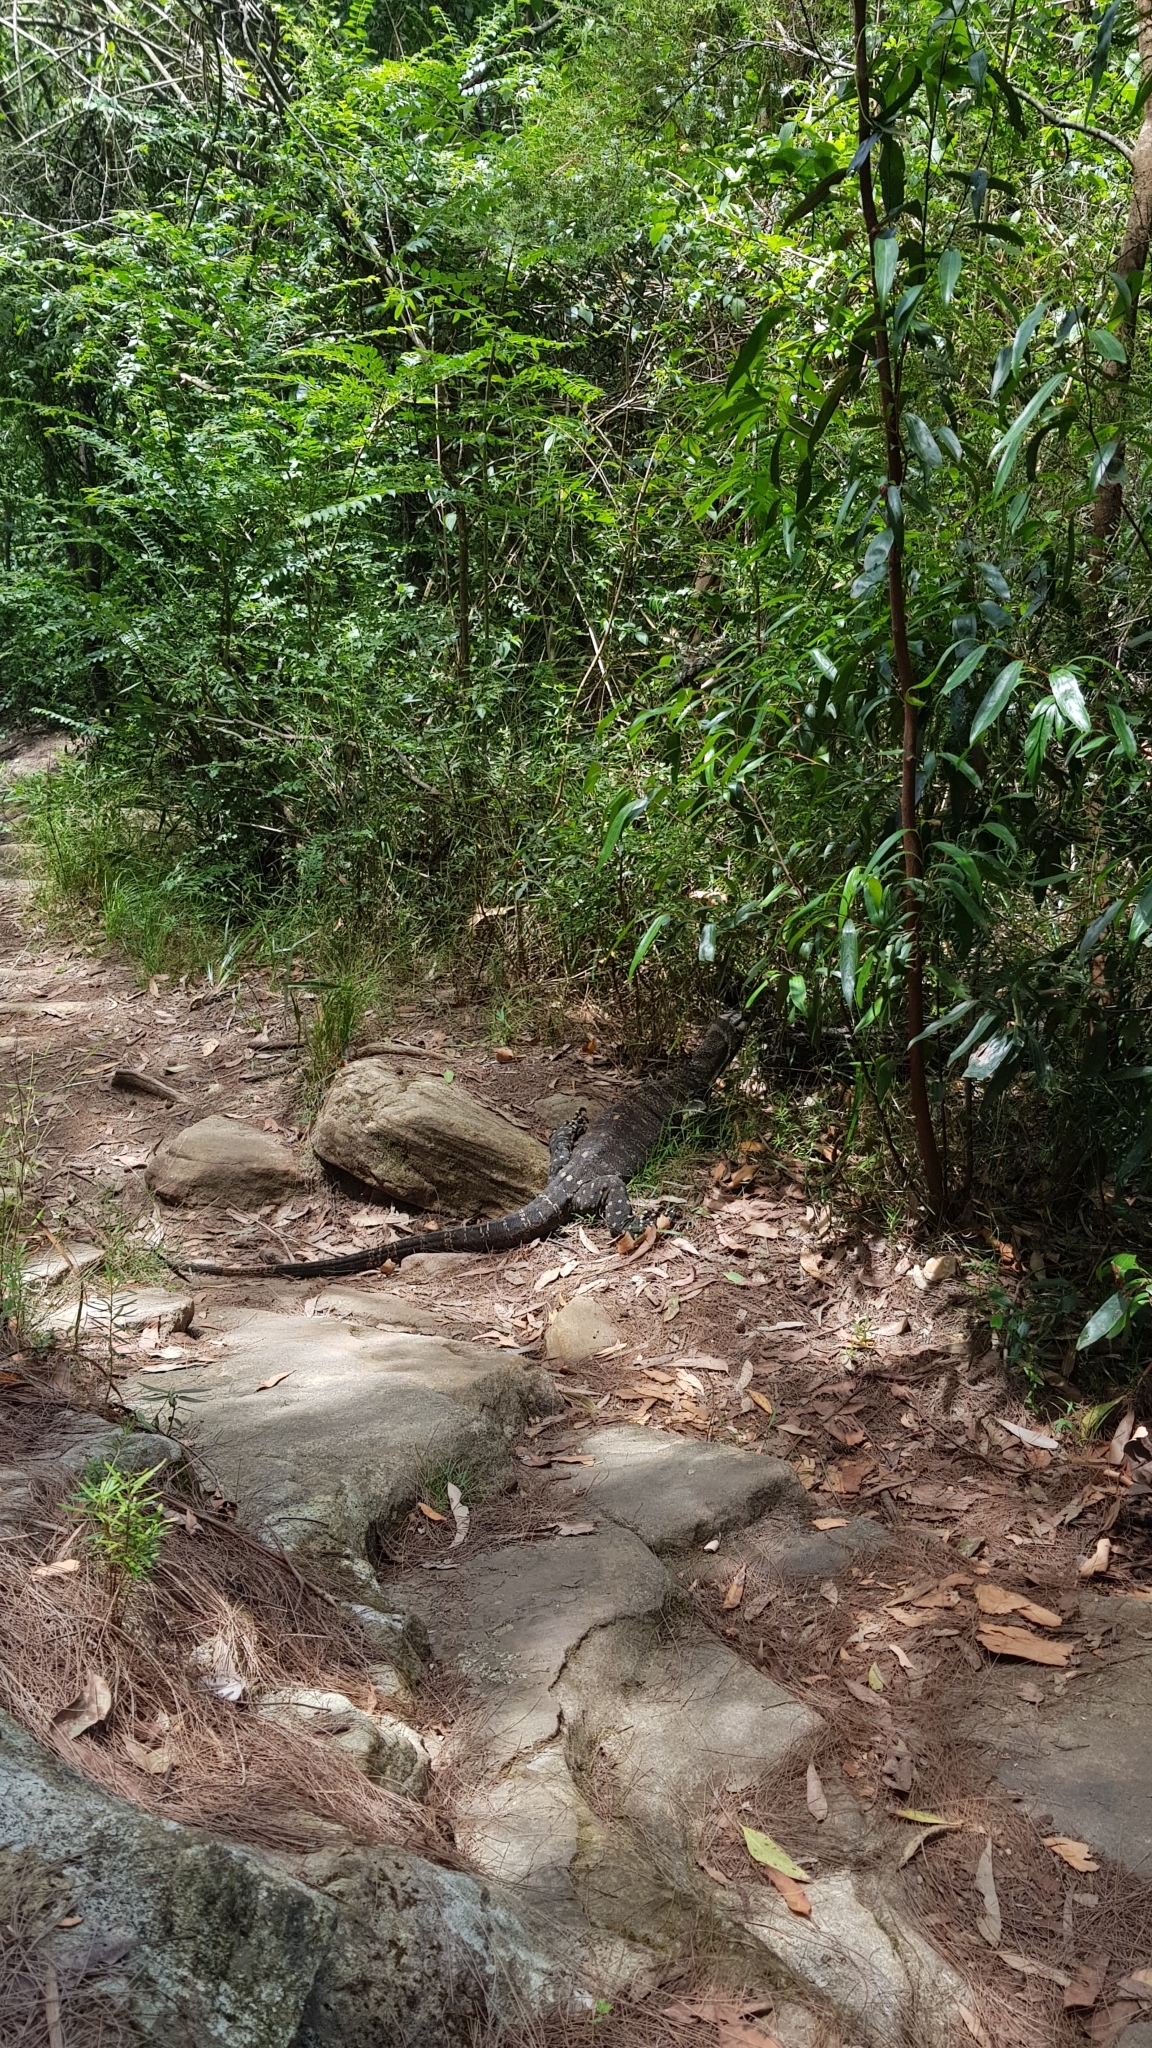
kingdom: Animalia
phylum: Chordata
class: Squamata
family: Varanidae
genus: Varanus
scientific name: Varanus varius
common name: Lace monitor
